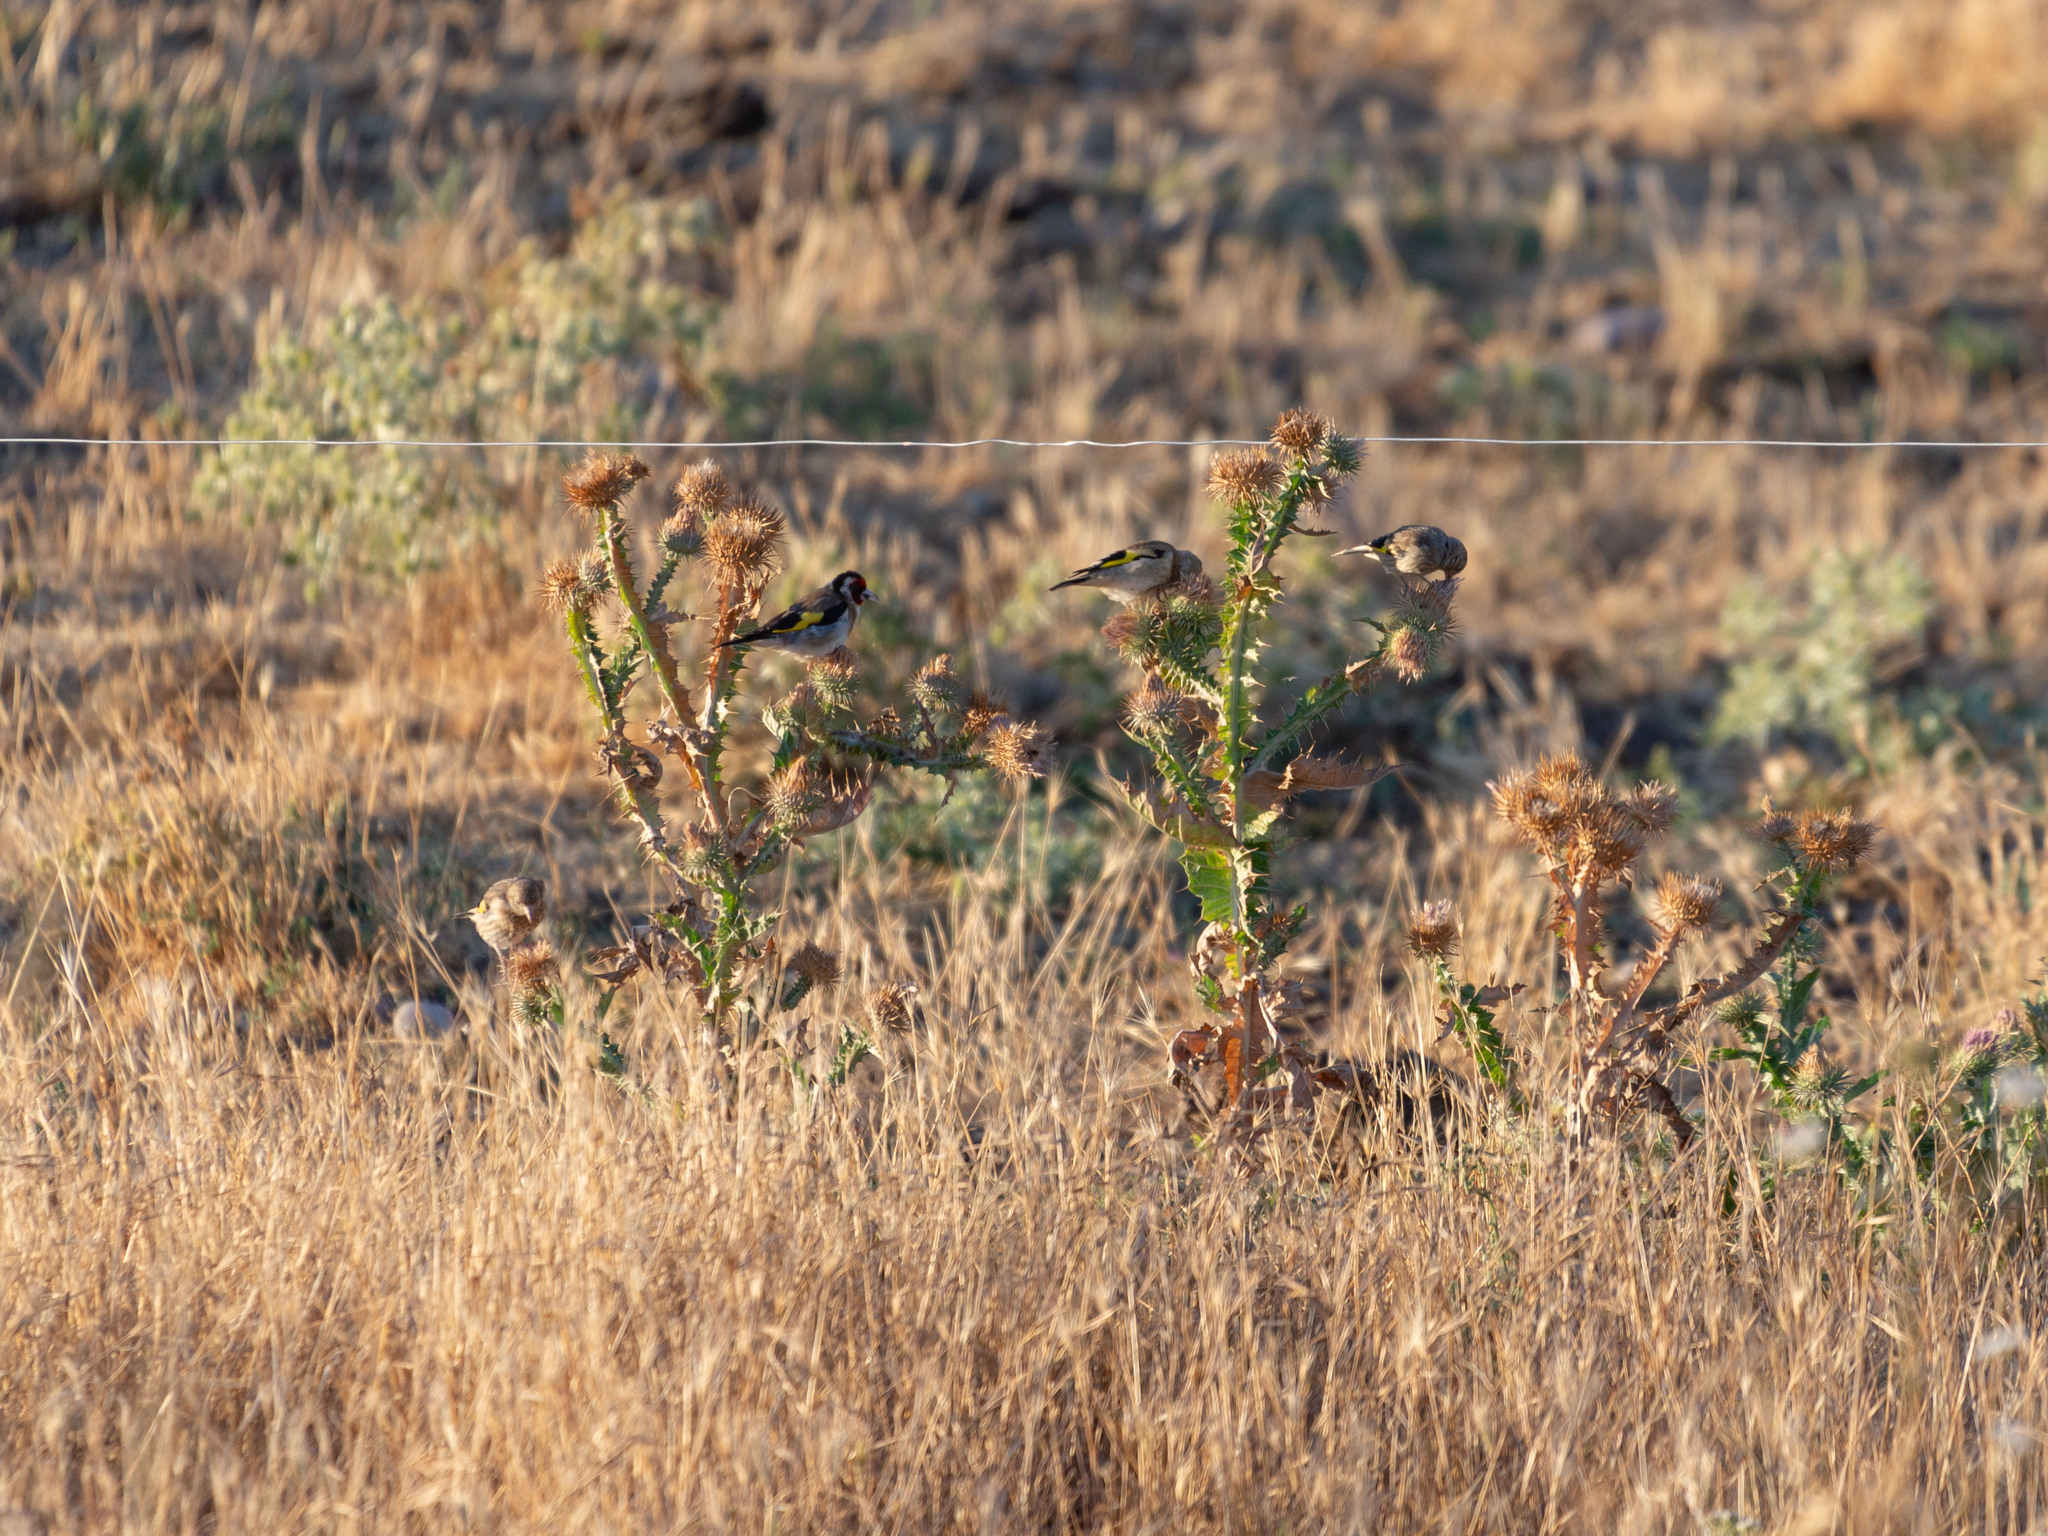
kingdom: Animalia
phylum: Chordata
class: Aves
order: Passeriformes
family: Fringillidae
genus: Carduelis
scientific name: Carduelis carduelis
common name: European goldfinch
